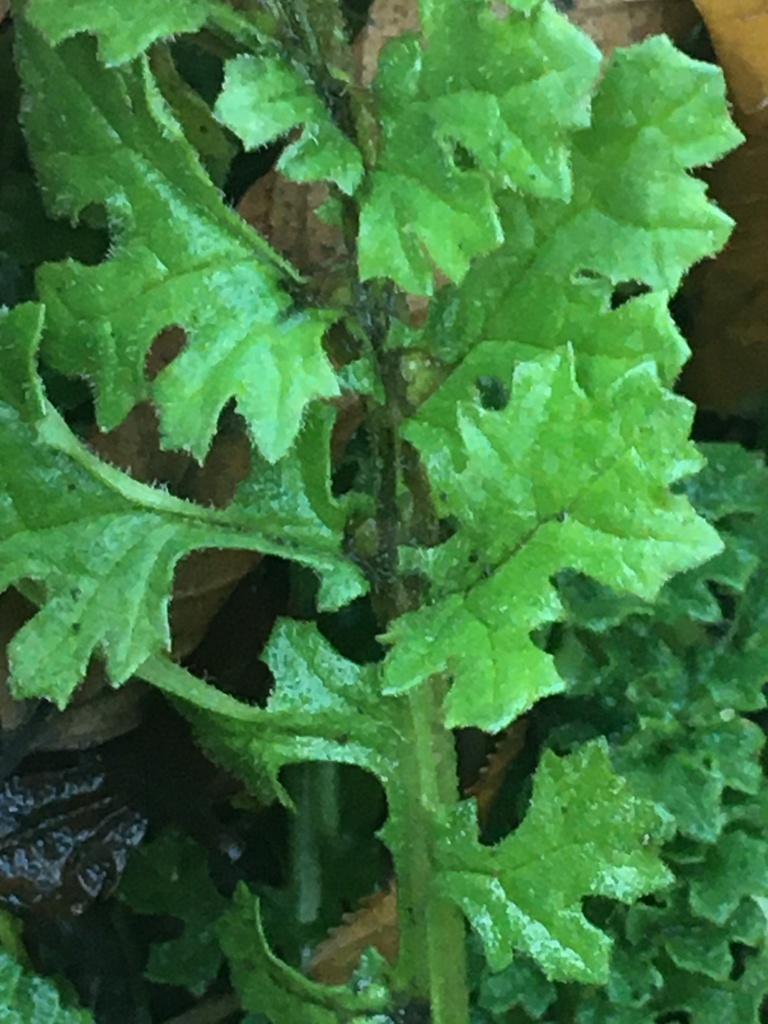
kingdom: Plantae
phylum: Tracheophyta
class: Magnoliopsida
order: Asterales
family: Asteraceae
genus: Jacobaea
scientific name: Jacobaea vulgaris
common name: Stinking willie
